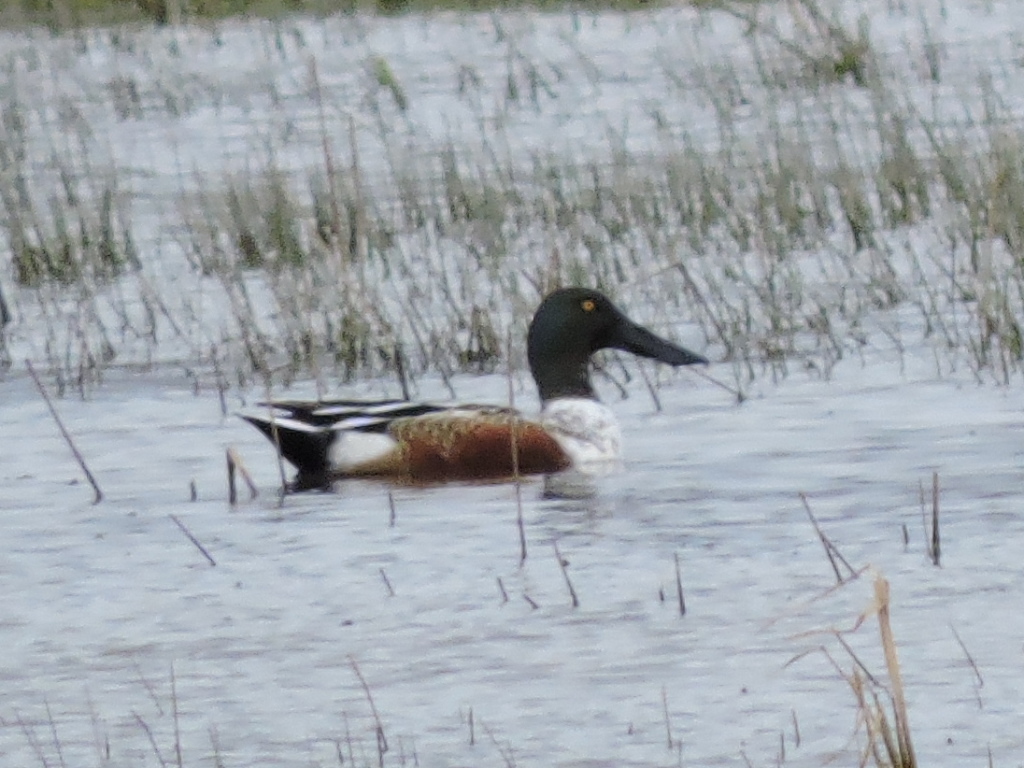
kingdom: Animalia
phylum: Chordata
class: Aves
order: Anseriformes
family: Anatidae
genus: Spatula
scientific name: Spatula clypeata
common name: Northern shoveler
